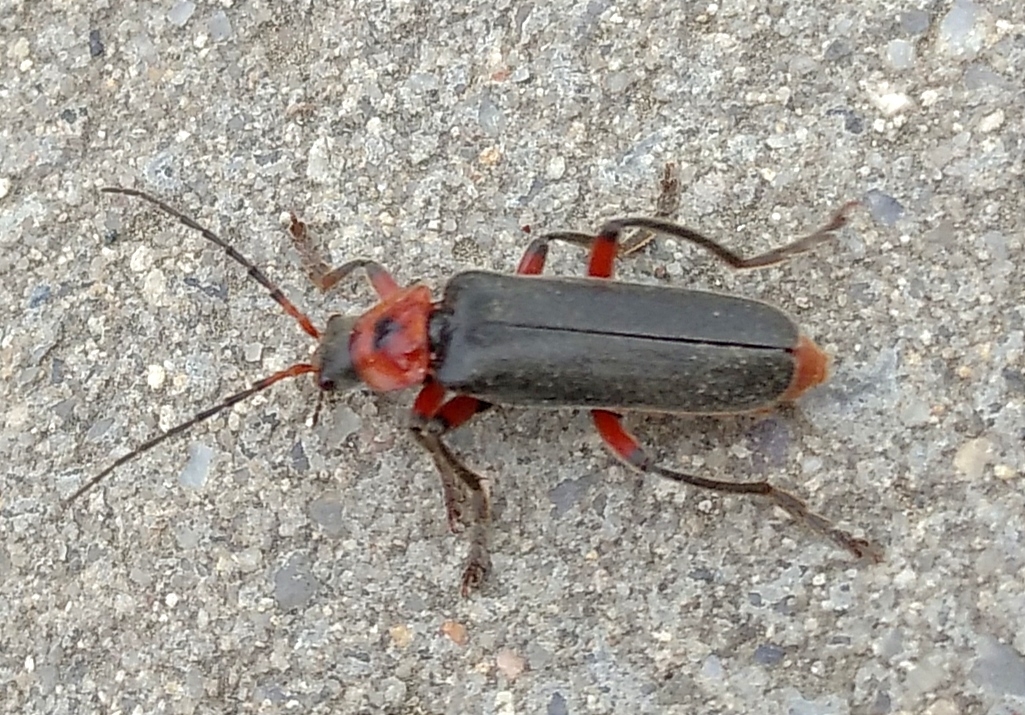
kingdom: Animalia
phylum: Arthropoda
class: Insecta
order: Coleoptera
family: Cantharidae
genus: Cantharis
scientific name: Cantharis rustica
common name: Soldier beetle
